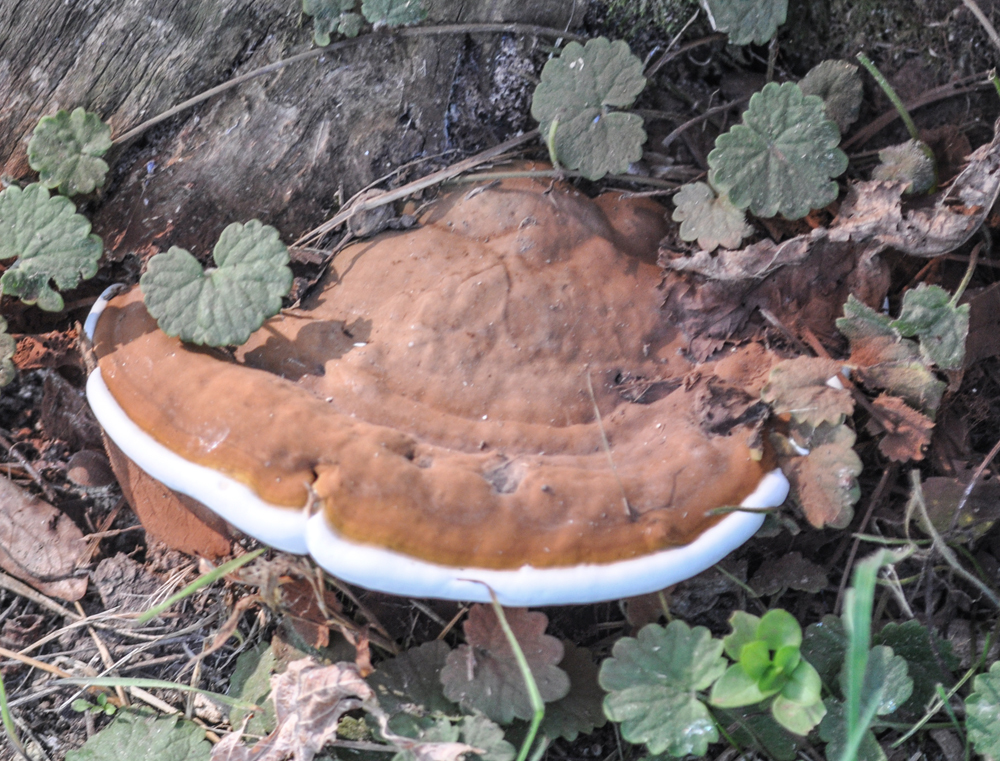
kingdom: Fungi
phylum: Basidiomycota
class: Agaricomycetes
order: Polyporales
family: Polyporaceae
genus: Ganoderma
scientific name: Ganoderma applanatum
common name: Artist's bracket
